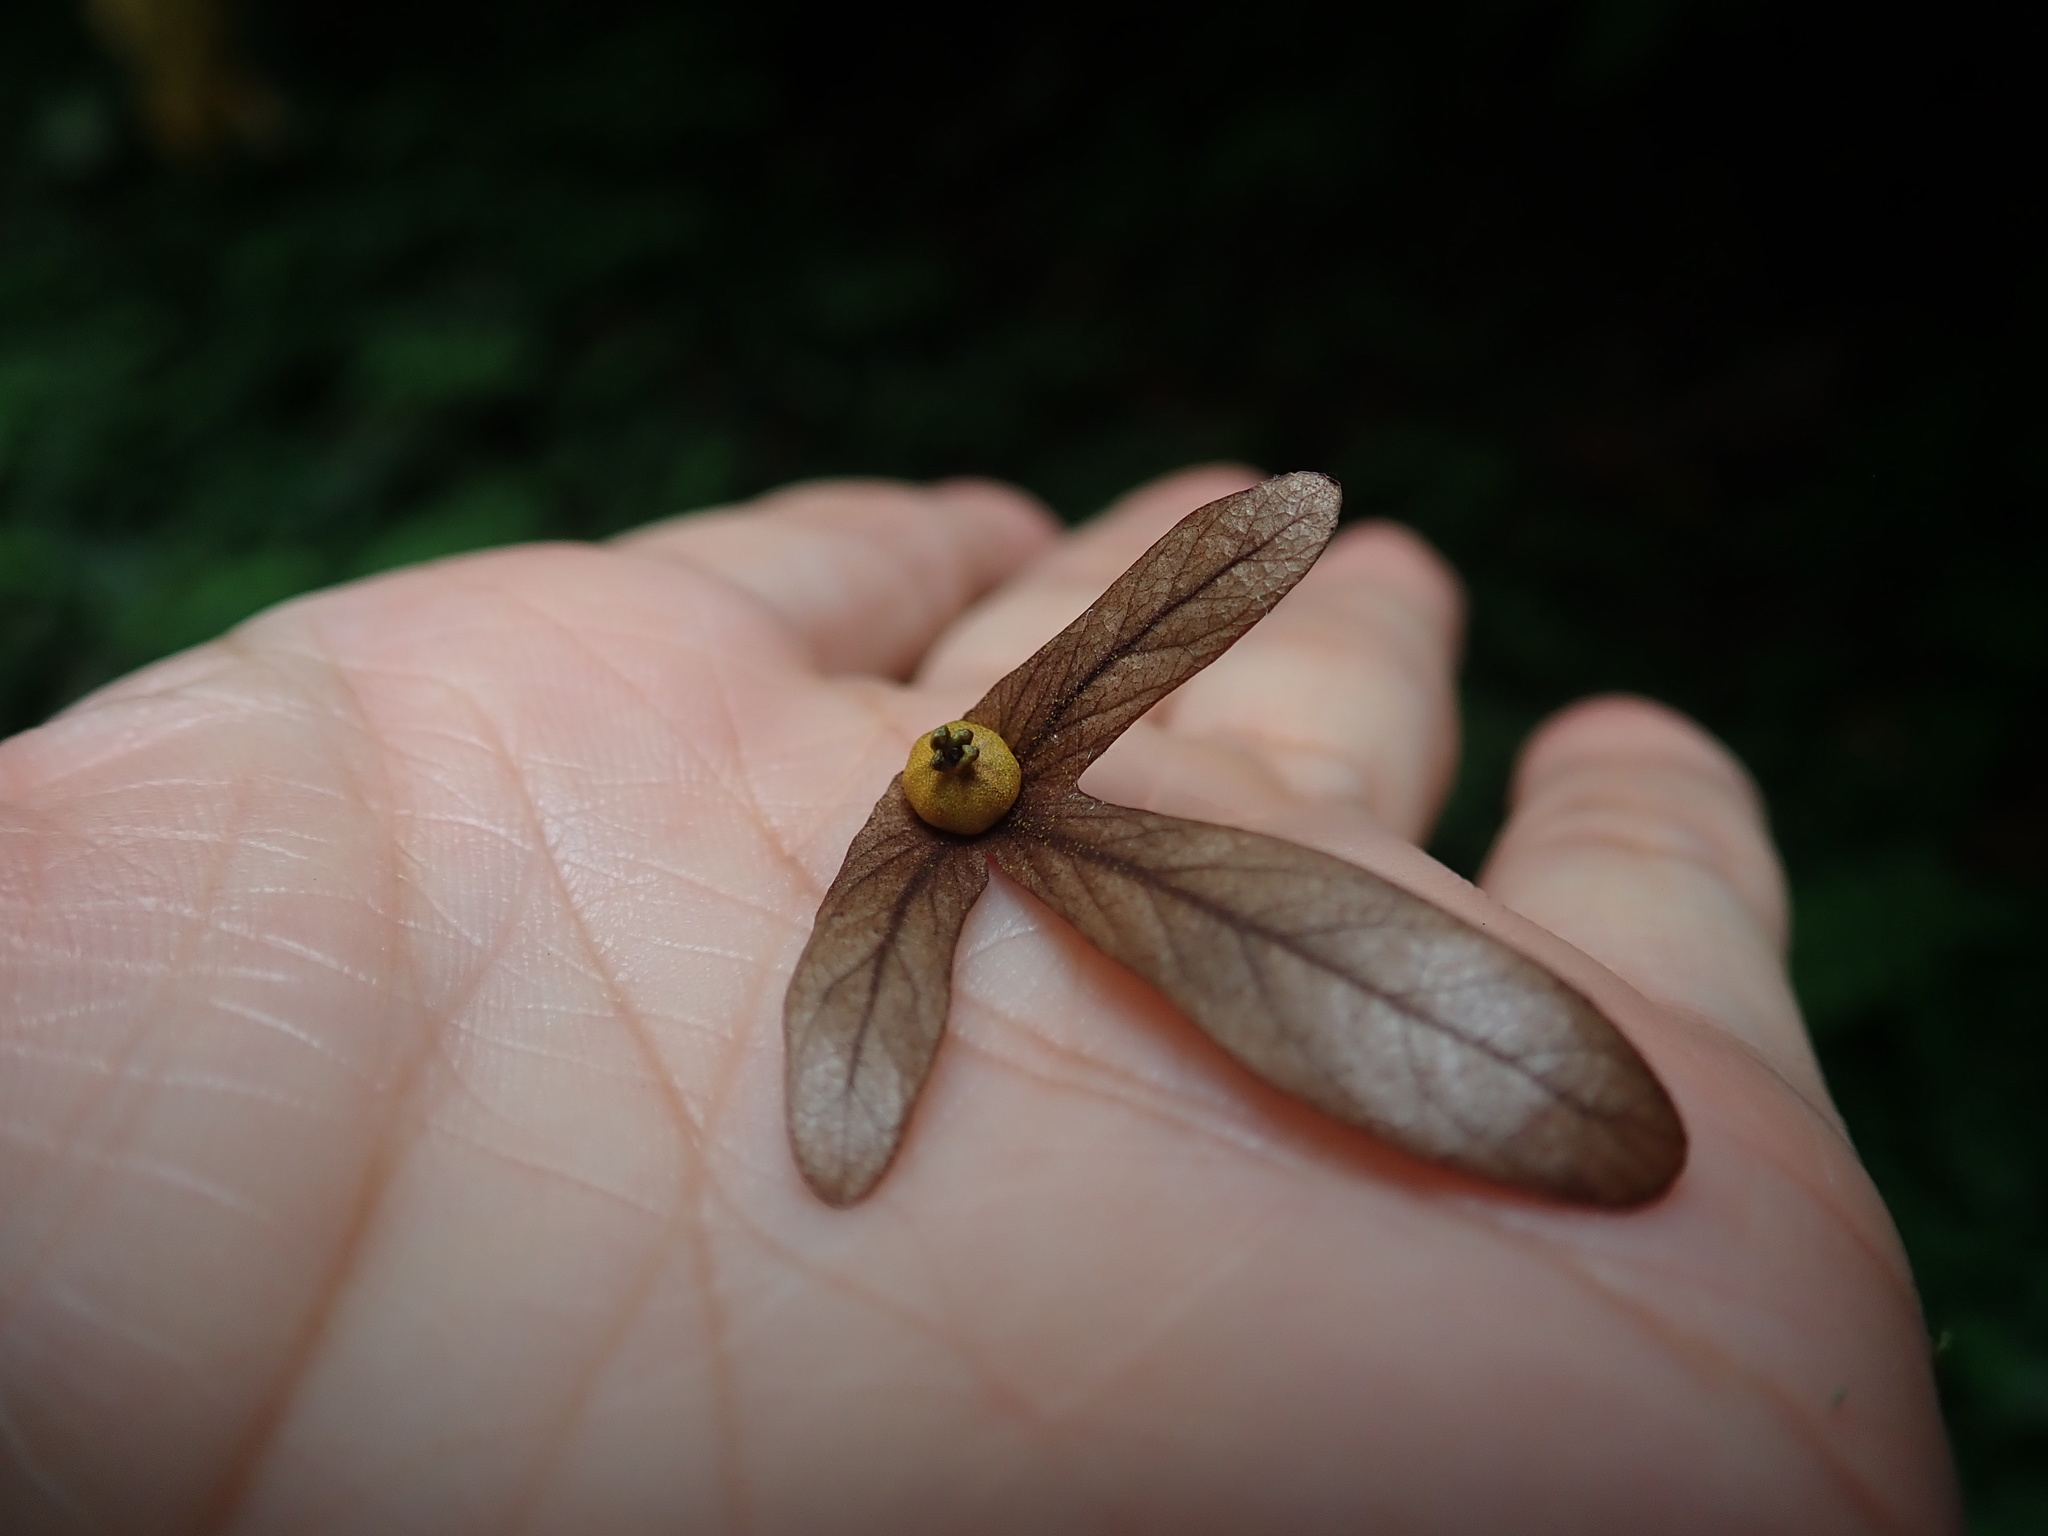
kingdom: Plantae
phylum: Tracheophyta
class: Magnoliopsida
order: Fagales
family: Juglandaceae
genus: Engelhardia
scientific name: Engelhardia roxburghiana
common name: Golden malay beam
